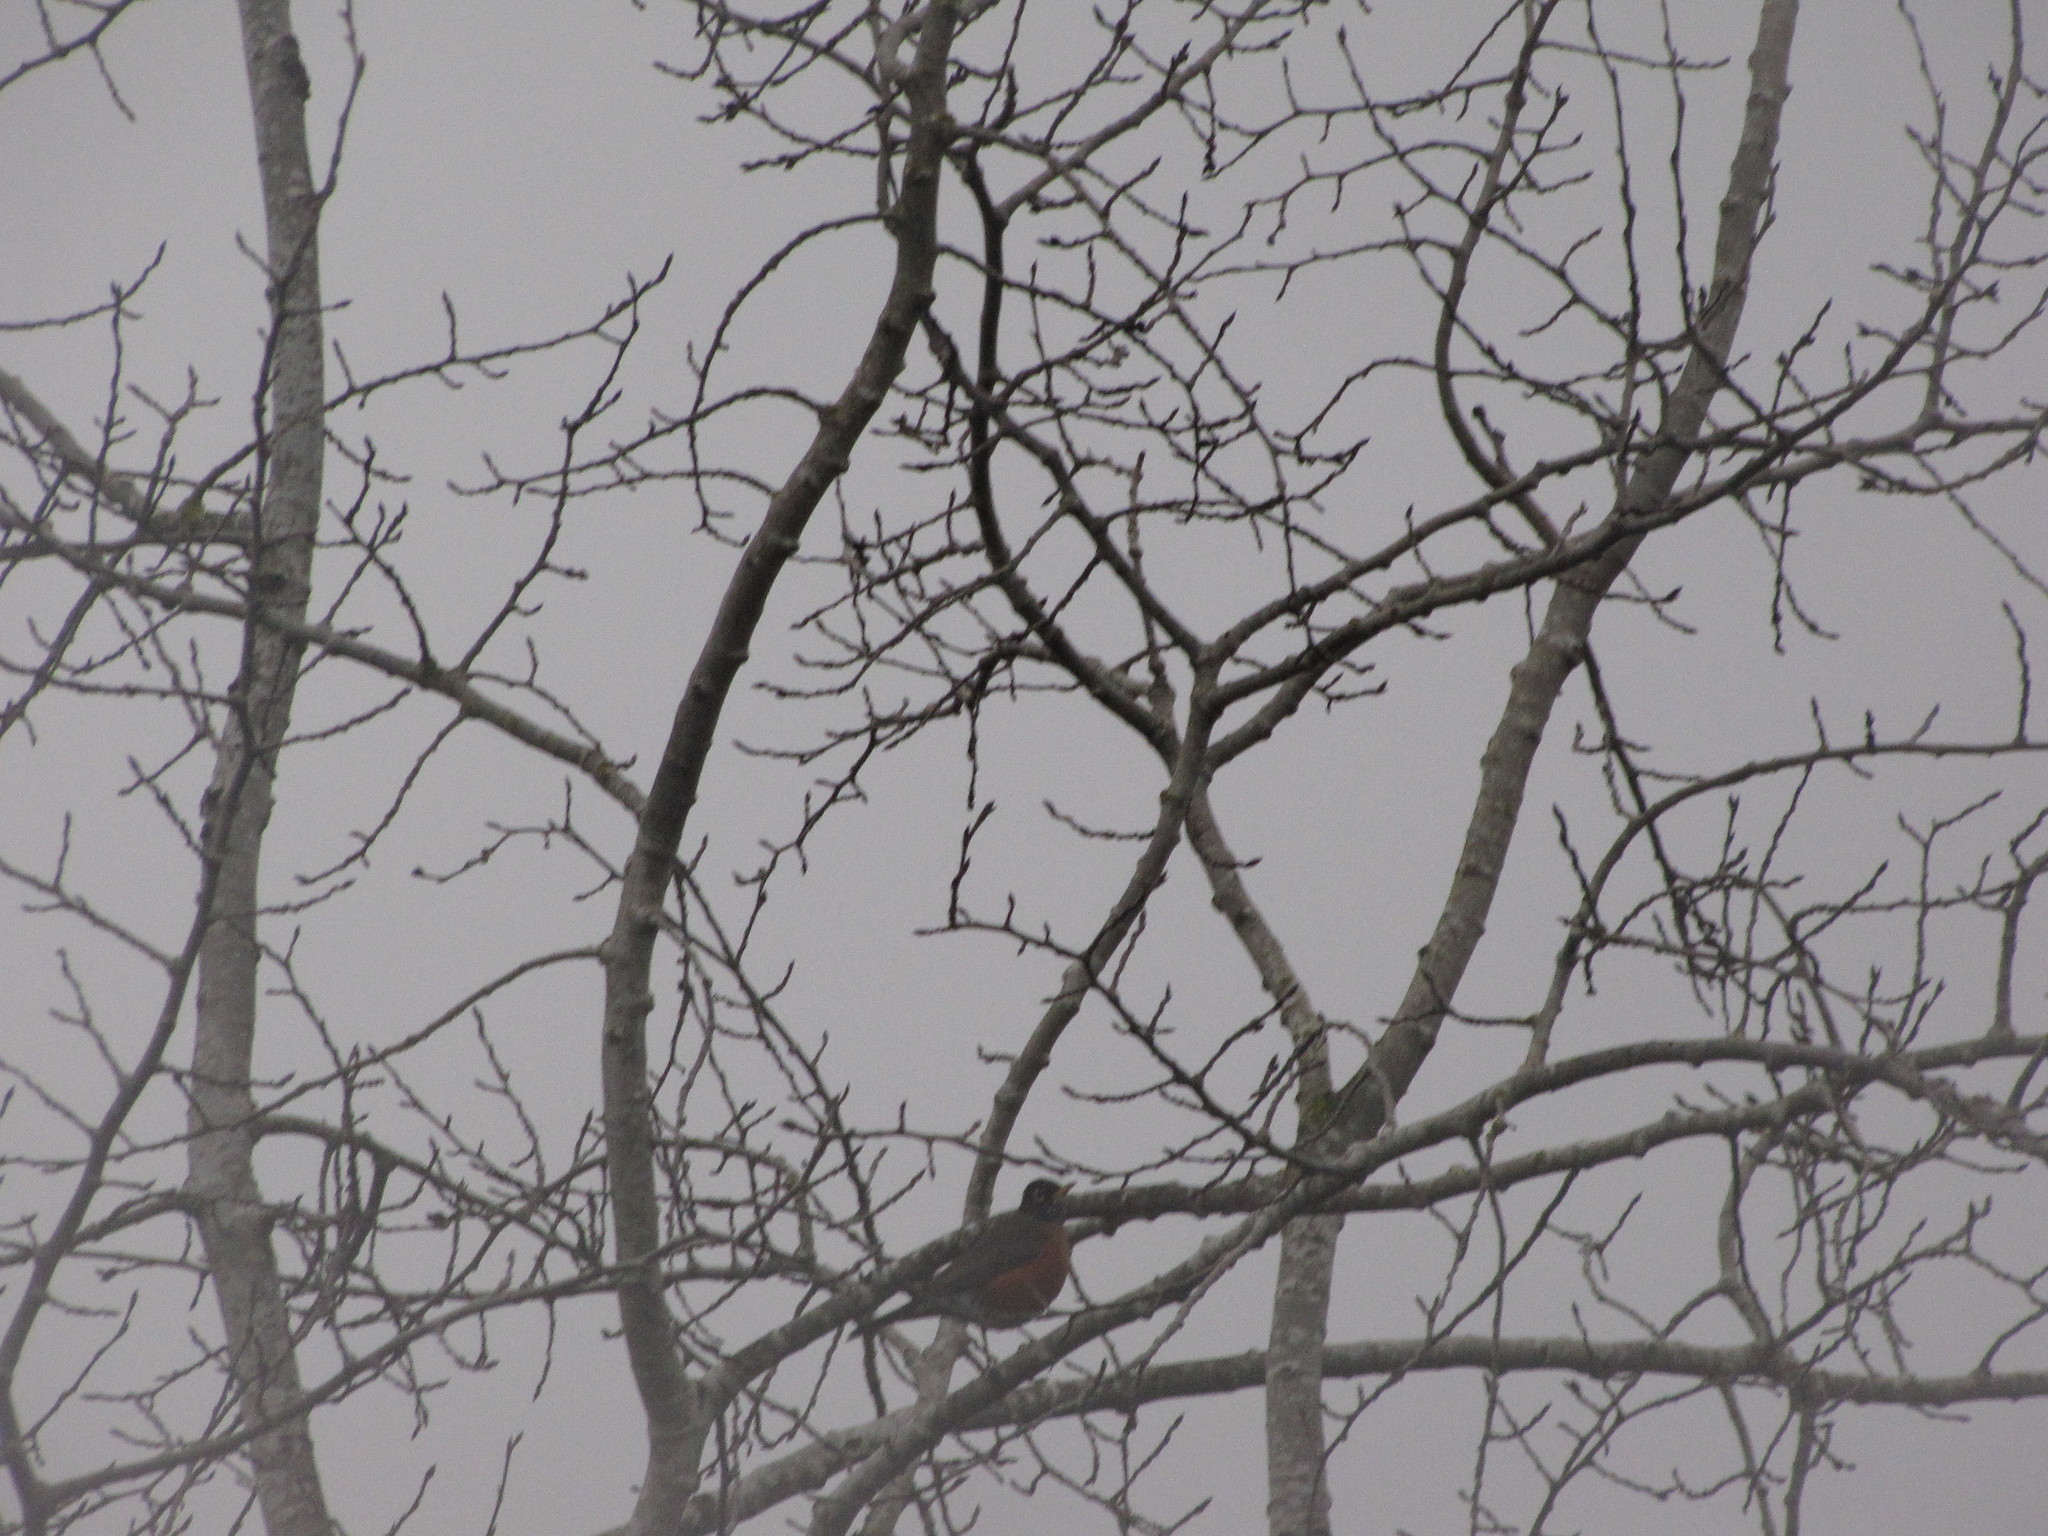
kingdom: Animalia
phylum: Chordata
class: Aves
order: Passeriformes
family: Turdidae
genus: Turdus
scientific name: Turdus migratorius
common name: American robin
